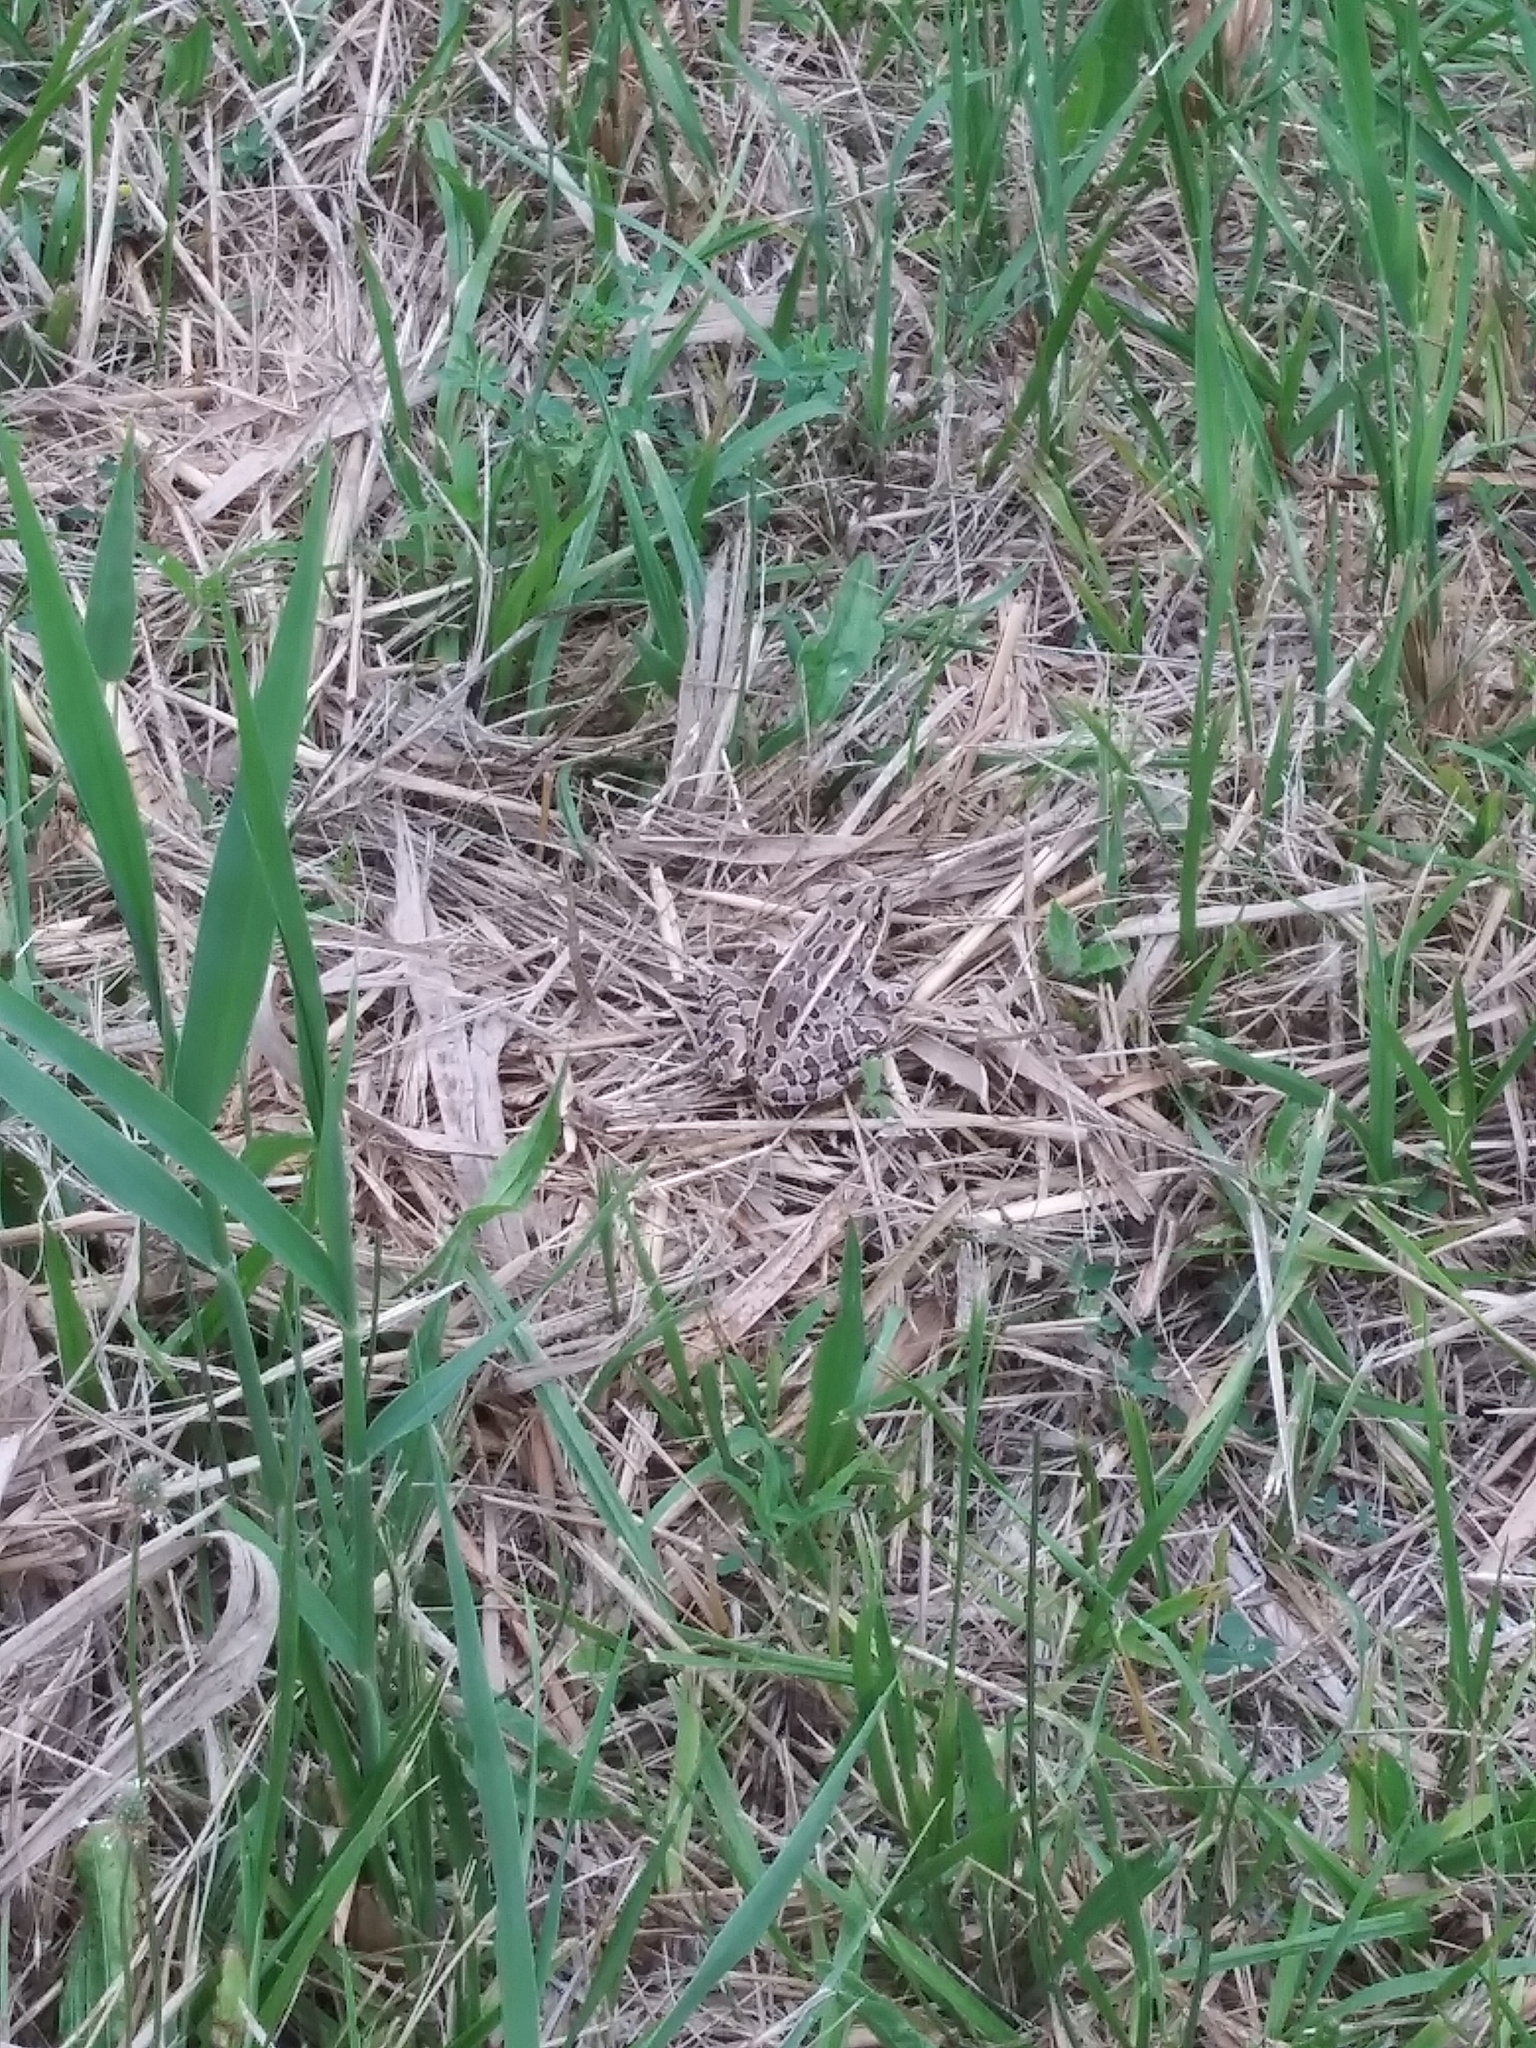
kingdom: Animalia
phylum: Chordata
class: Amphibia
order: Anura
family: Ranidae
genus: Lithobates
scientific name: Lithobates pipiens
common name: Northern leopard frog
